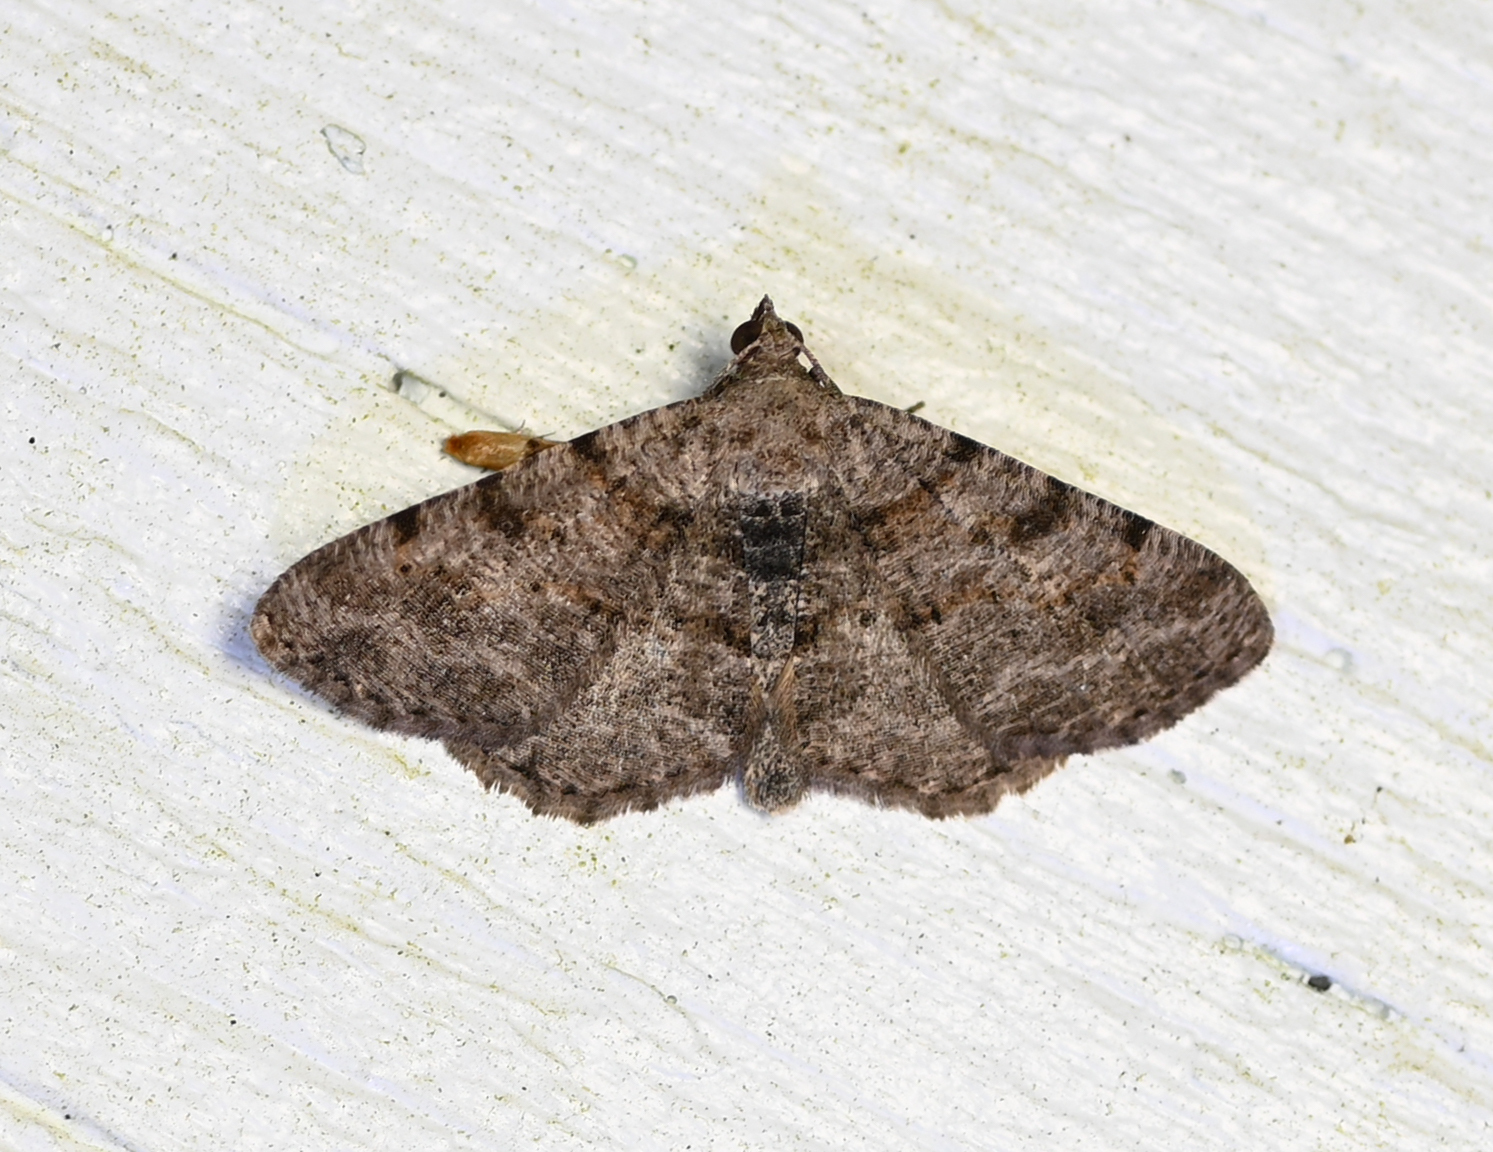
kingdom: Animalia
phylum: Arthropoda
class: Insecta
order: Lepidoptera
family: Geometridae
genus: Digrammia
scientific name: Digrammia gnophosaria
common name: Hollow-spotted angle
